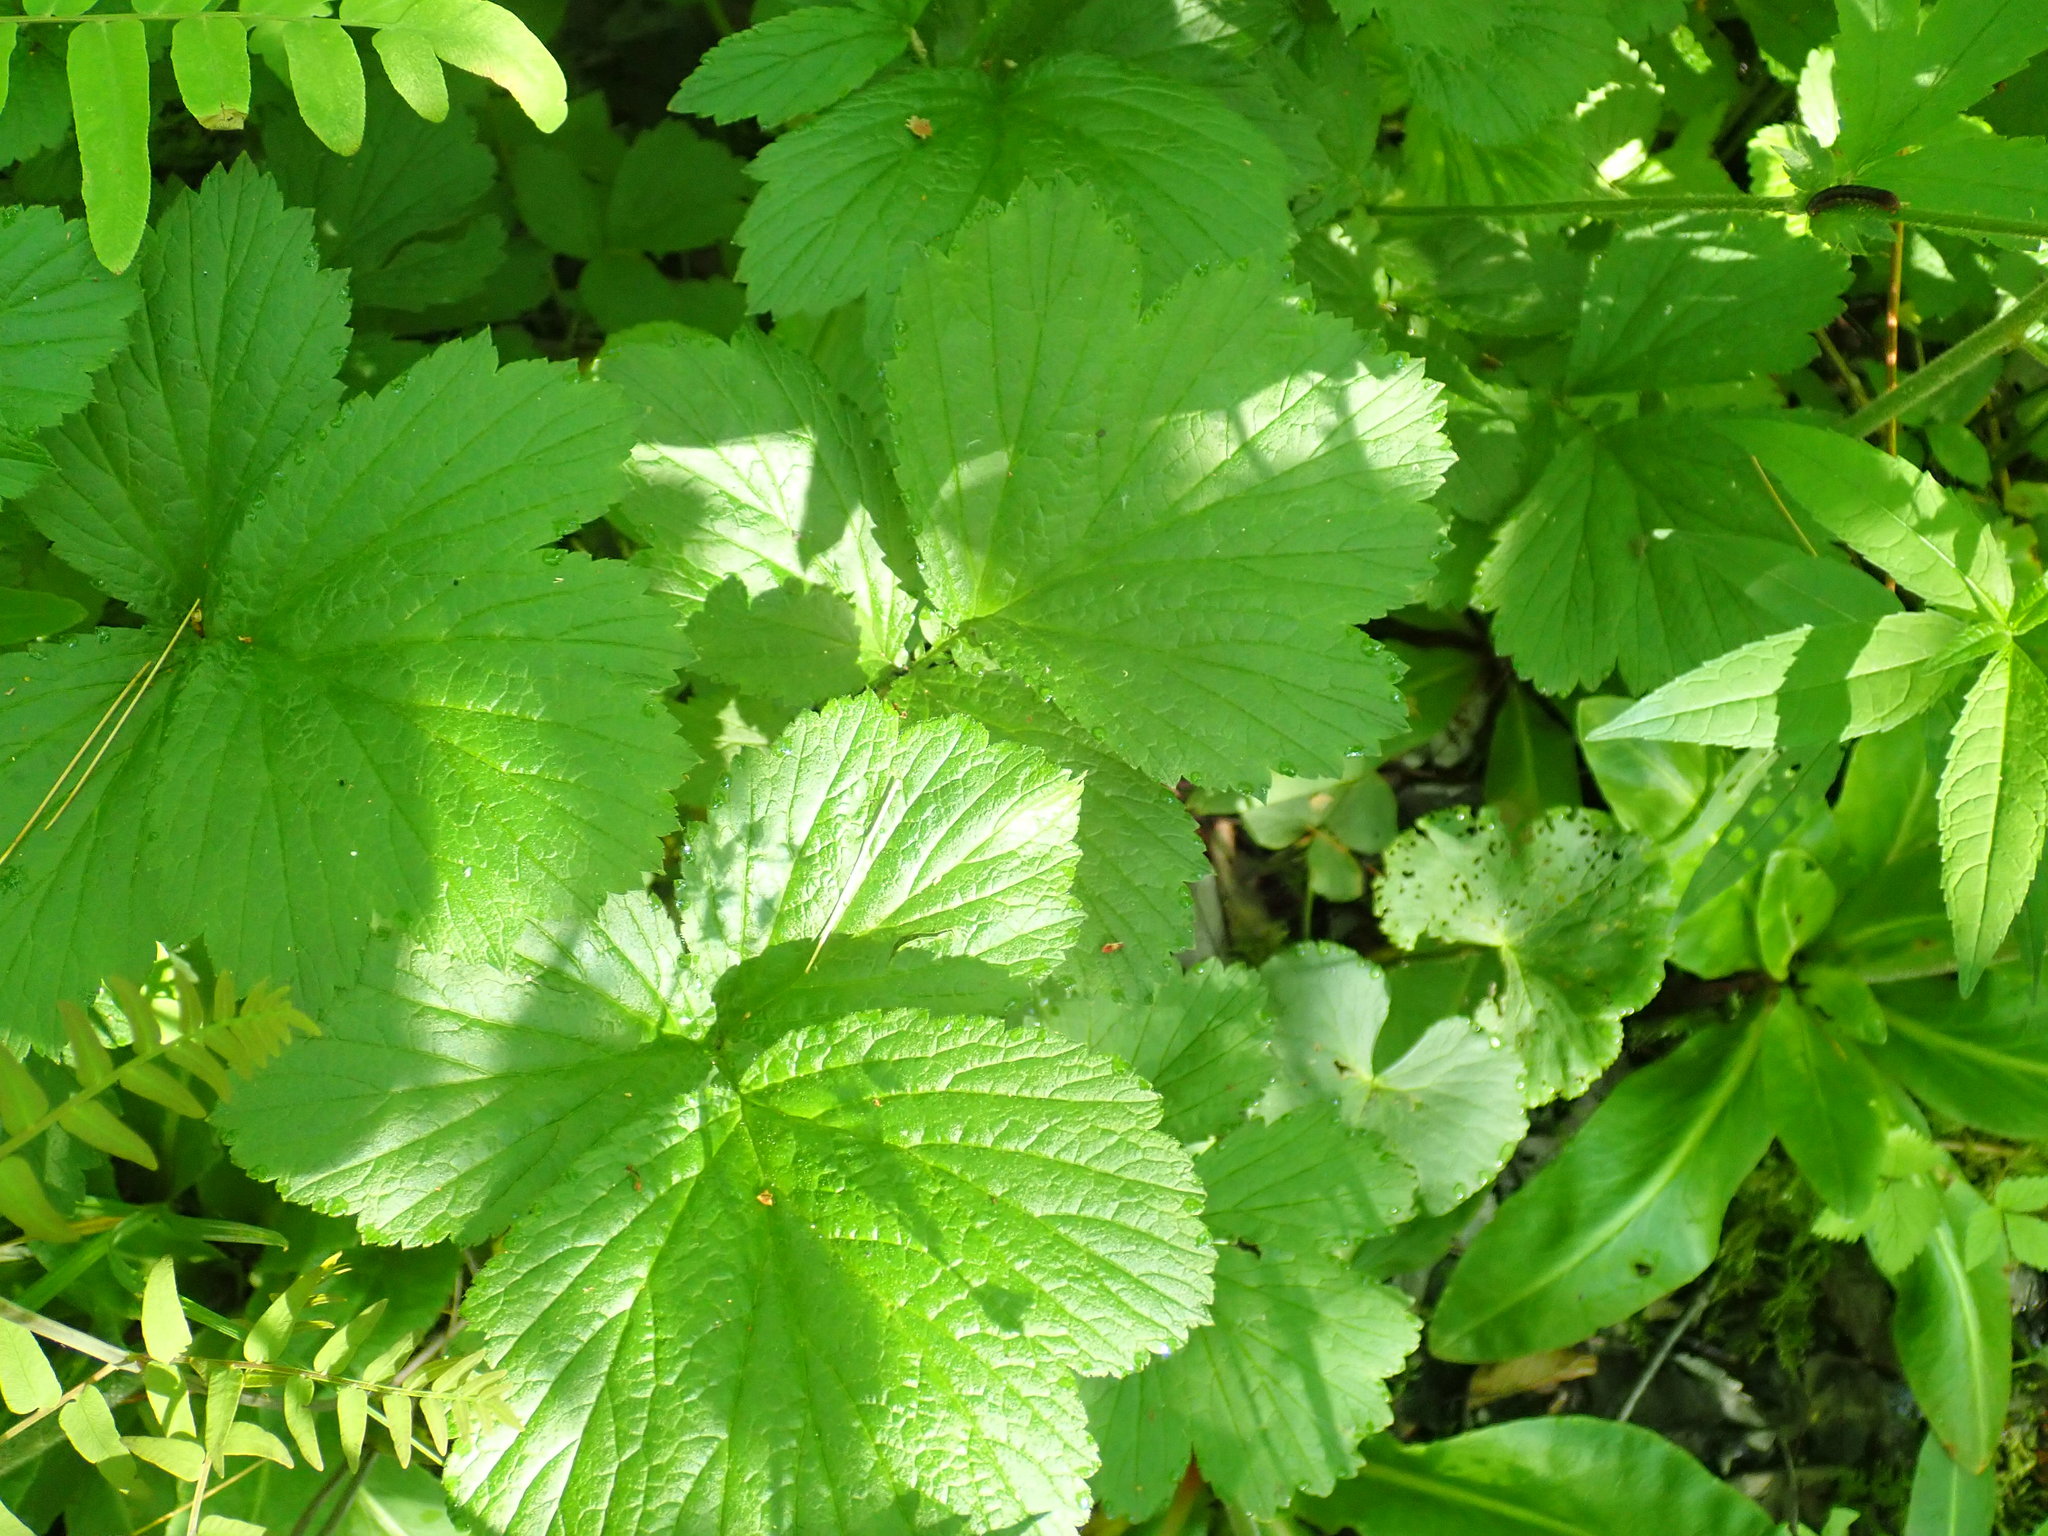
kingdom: Plantae
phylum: Tracheophyta
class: Magnoliopsida
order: Rosales
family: Rosaceae
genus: Geum
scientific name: Geum rivale
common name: Water avens
